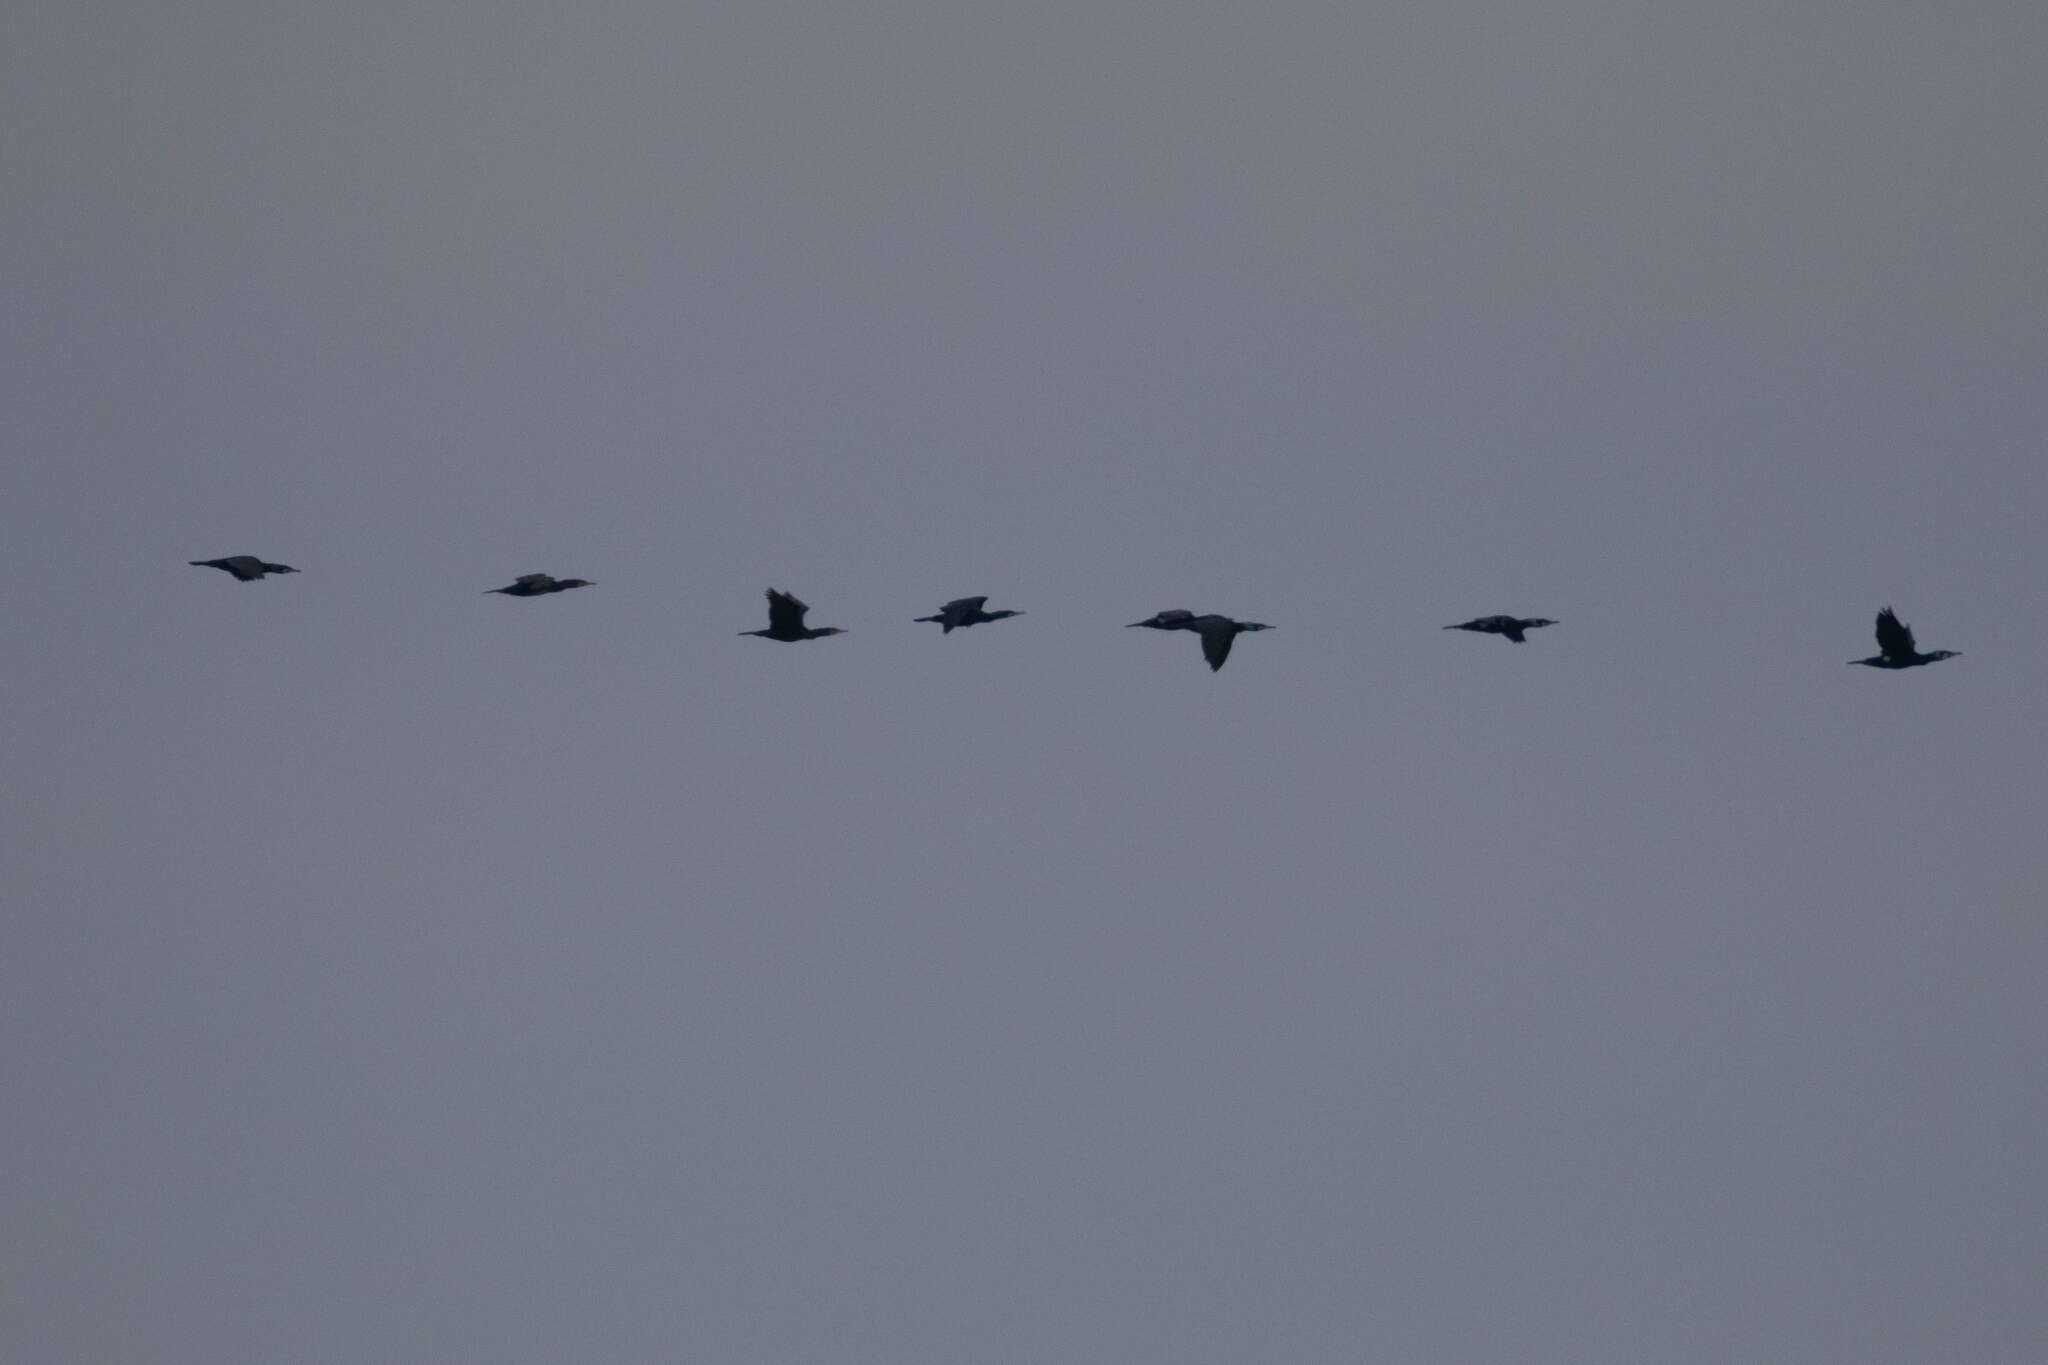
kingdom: Animalia
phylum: Chordata
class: Aves
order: Suliformes
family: Phalacrocoracidae
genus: Phalacrocorax
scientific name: Phalacrocorax carbo
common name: Great cormorant
